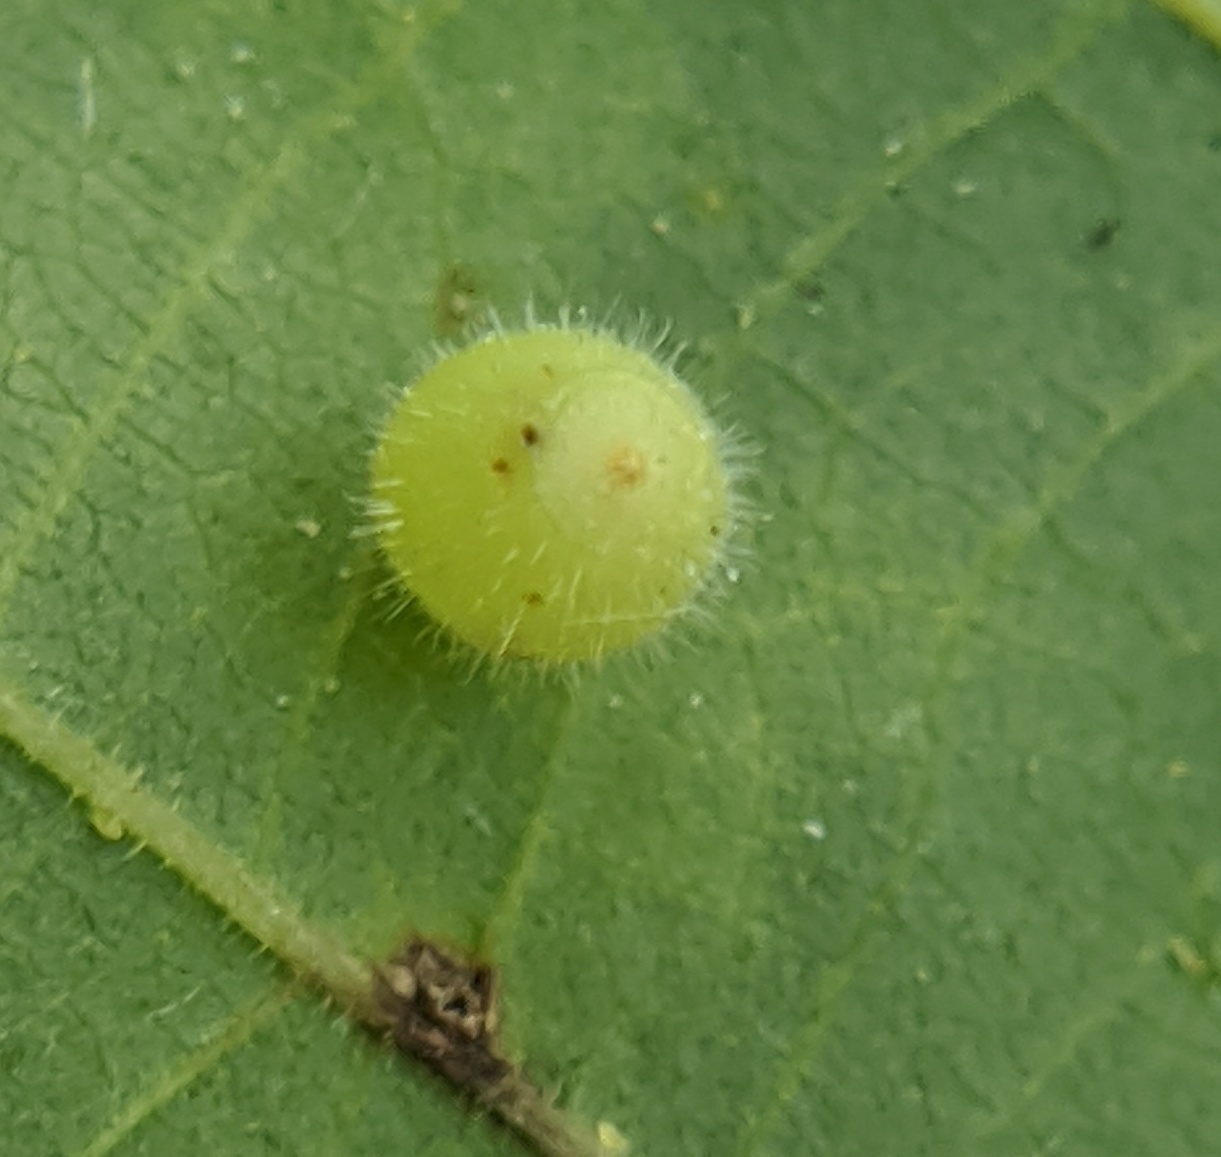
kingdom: Animalia
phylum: Arthropoda
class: Insecta
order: Diptera
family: Cecidomyiidae
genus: Caryomyia
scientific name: Caryomyia cilidolium
